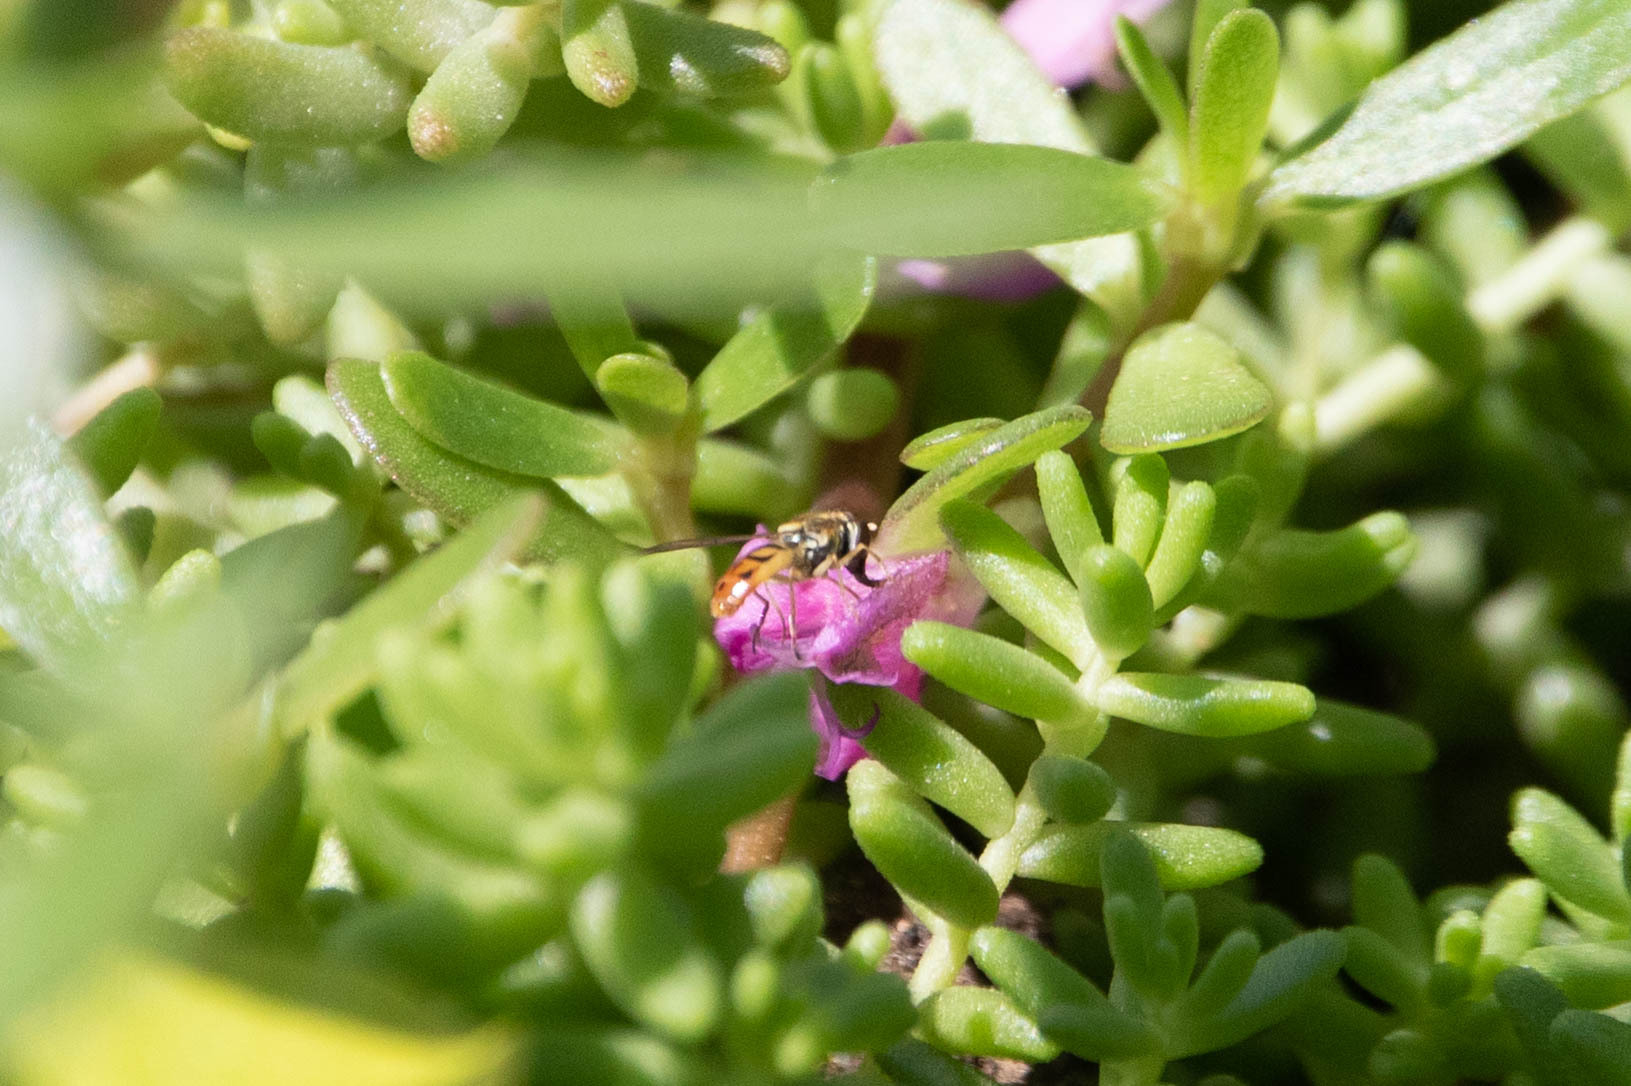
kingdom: Animalia
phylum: Arthropoda
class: Insecta
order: Diptera
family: Syrphidae
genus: Toxomerus
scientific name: Toxomerus marginatus
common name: Syrphid fly
